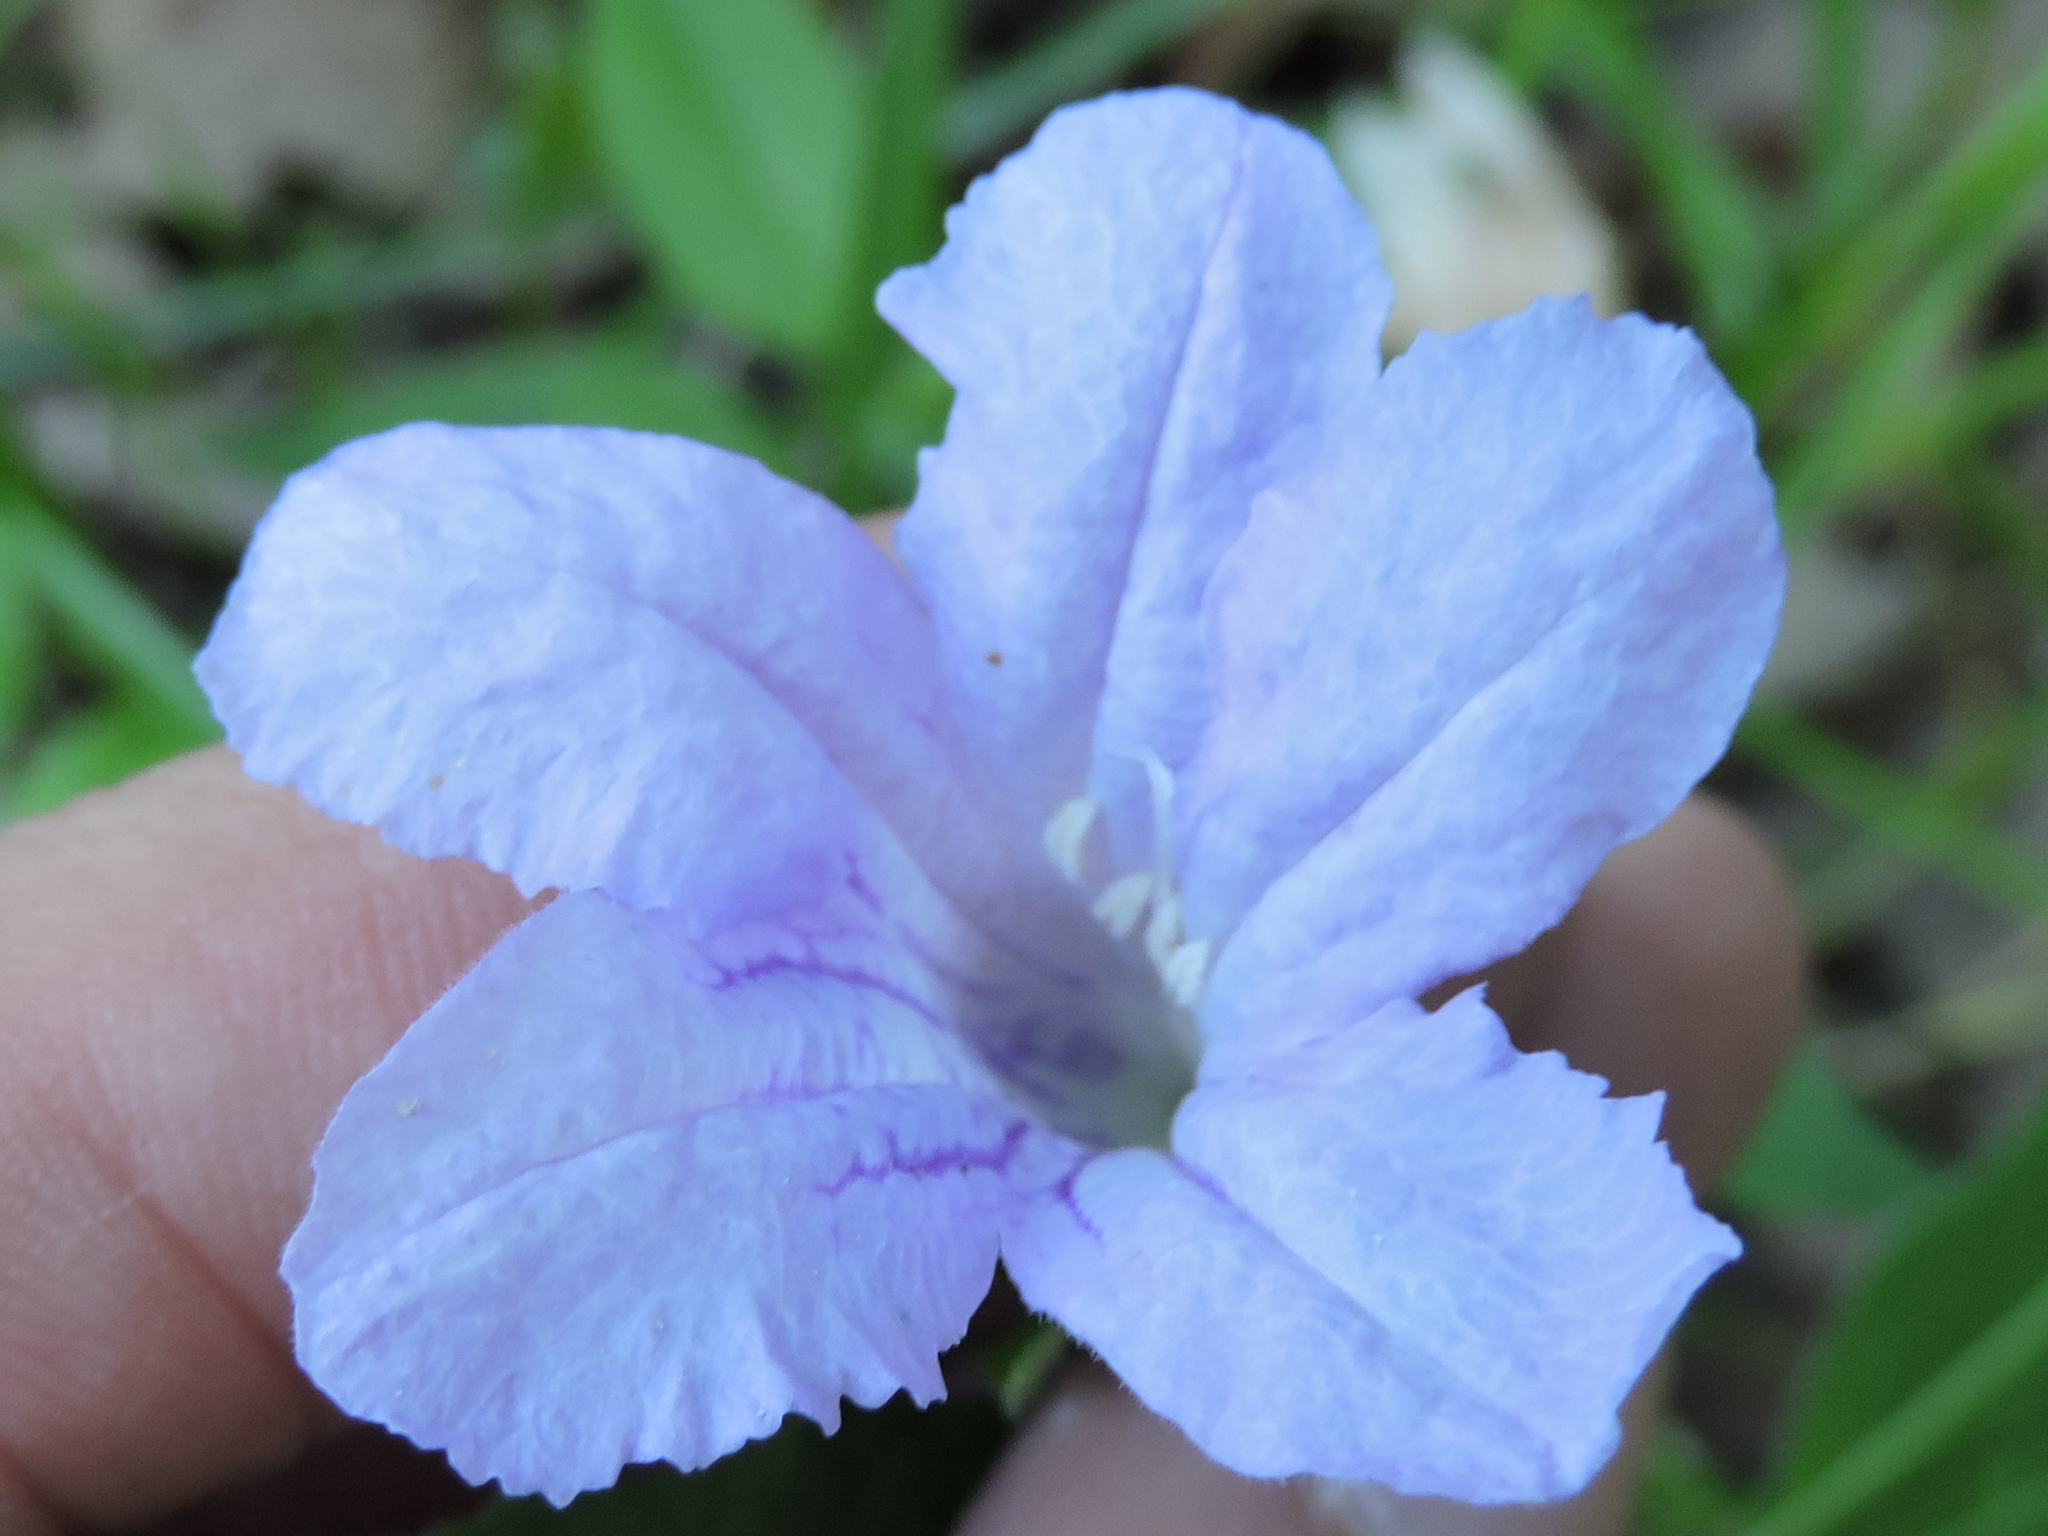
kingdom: Plantae
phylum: Tracheophyta
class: Magnoliopsida
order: Lamiales
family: Acanthaceae
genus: Ruellia
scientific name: Ruellia pedunculata
